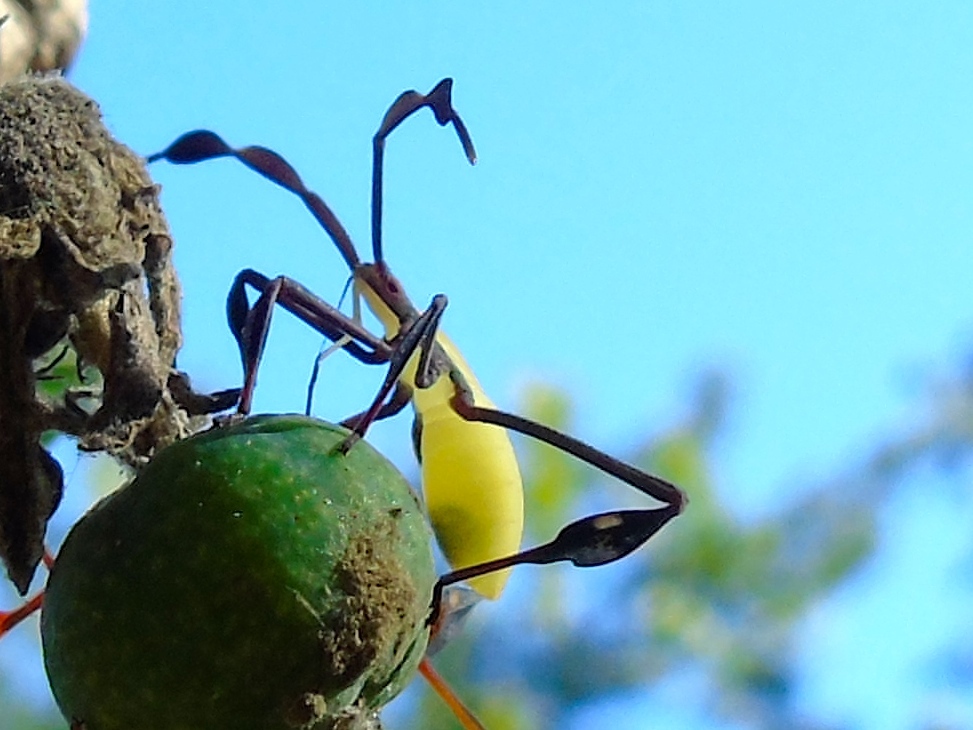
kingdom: Animalia
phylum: Arthropoda
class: Insecta
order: Hemiptera
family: Coreidae
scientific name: Coreidae
